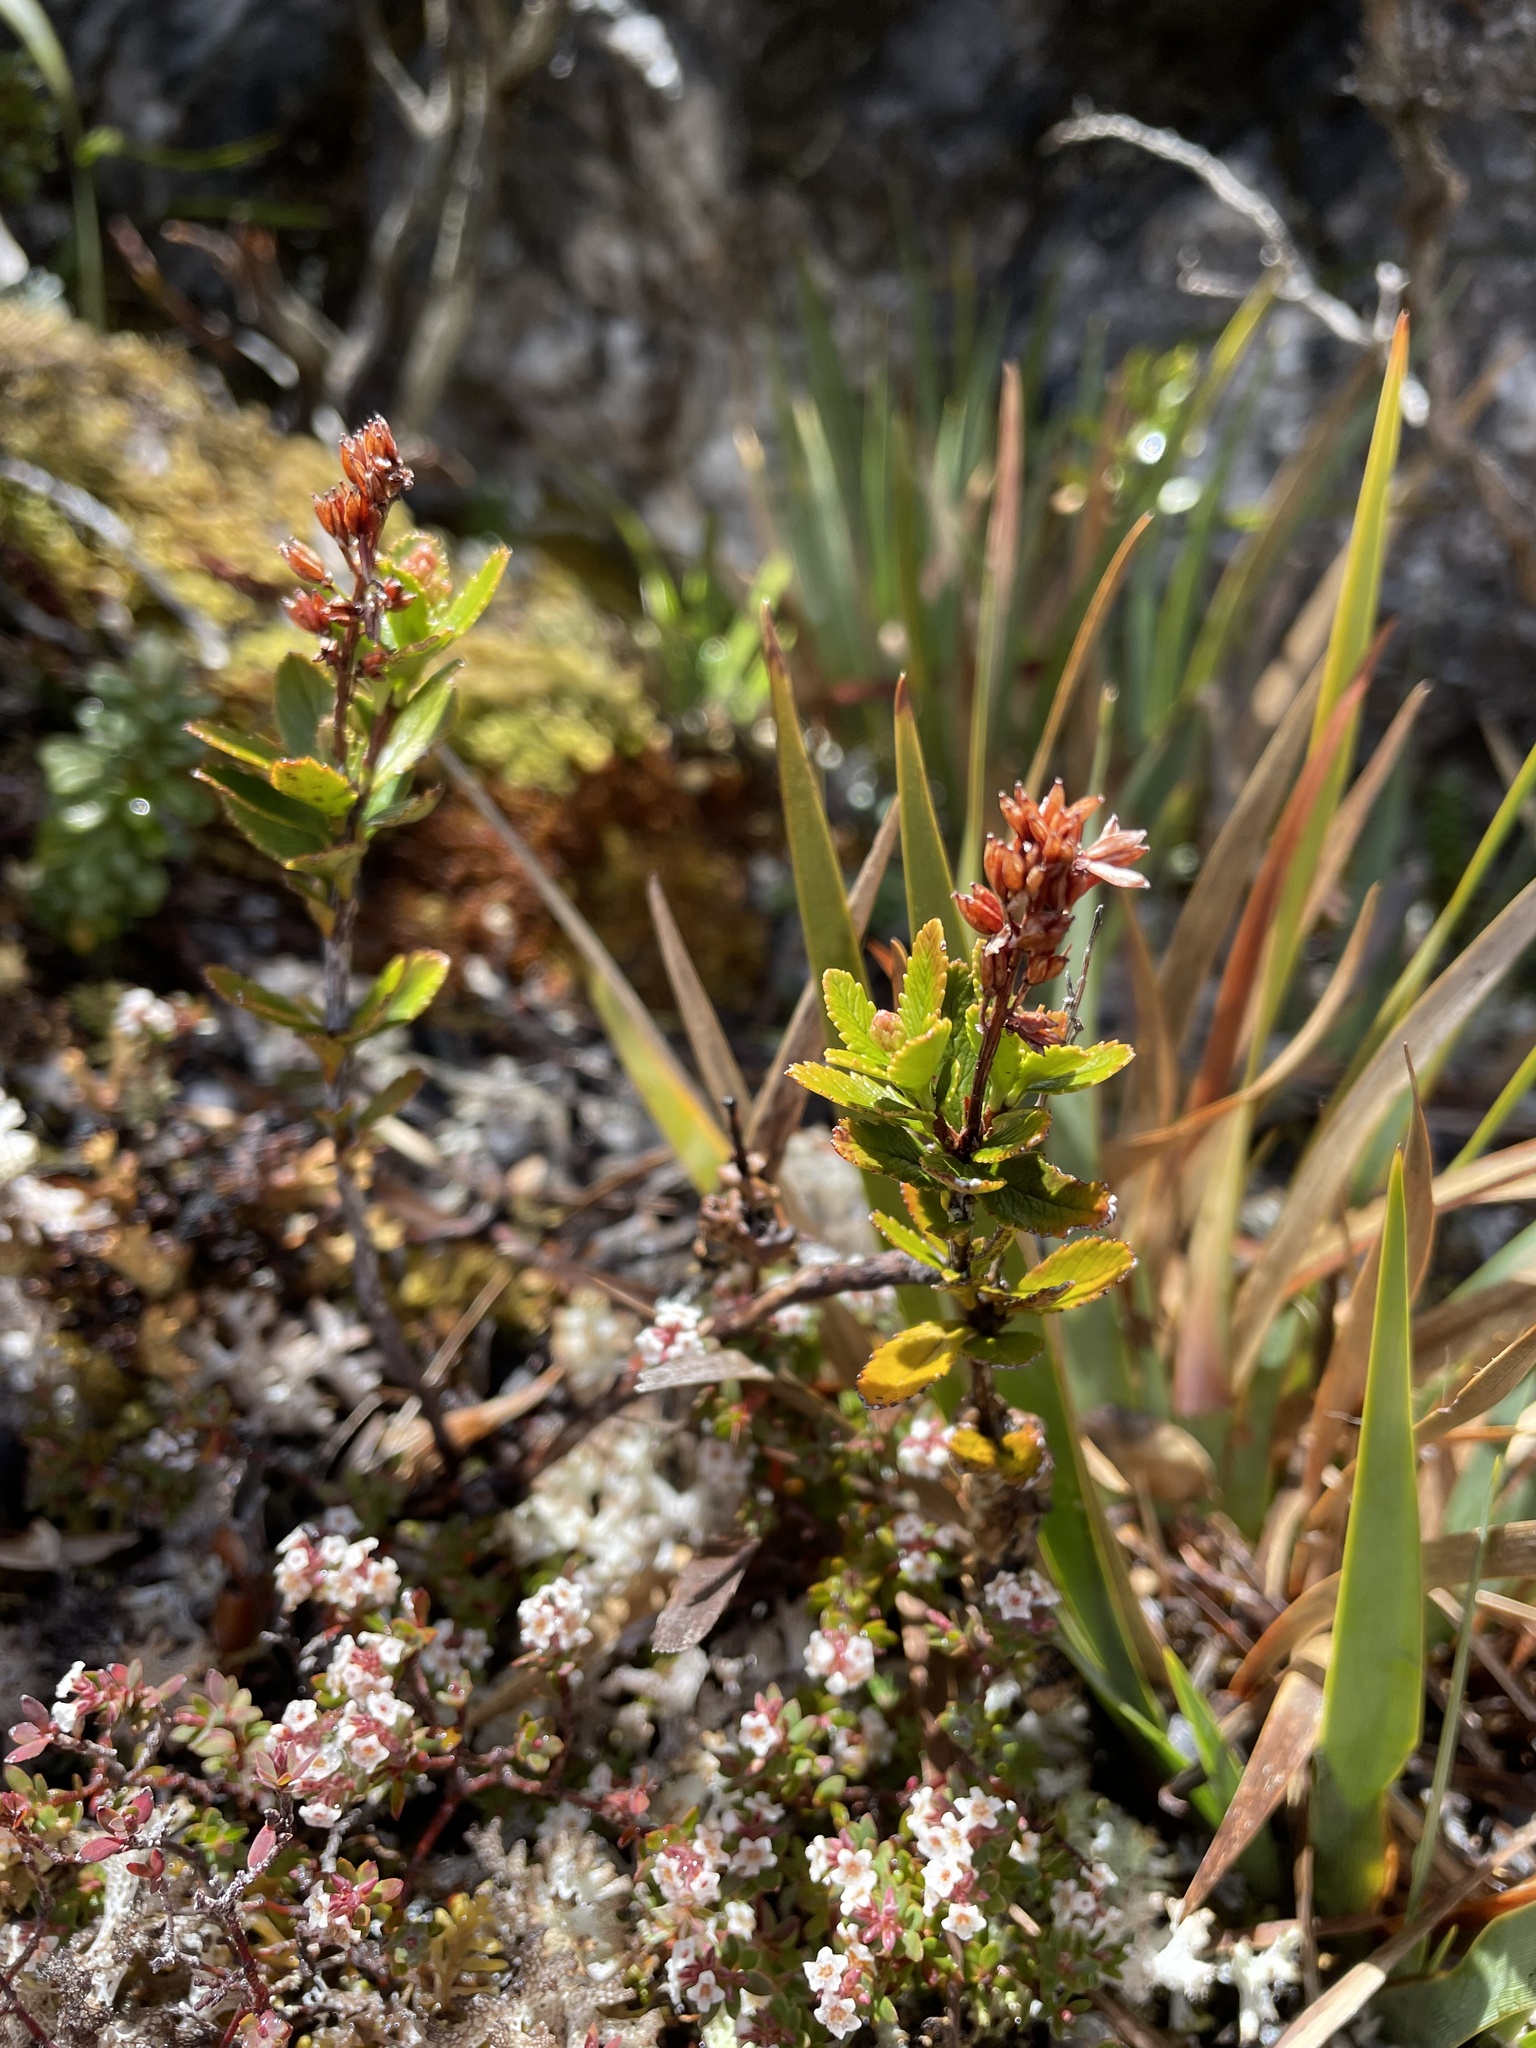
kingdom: Plantae
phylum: Tracheophyta
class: Magnoliopsida
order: Saxifragales
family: Tetracarpaeaceae
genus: Tetracarpaea
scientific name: Tetracarpaea tasmanica
